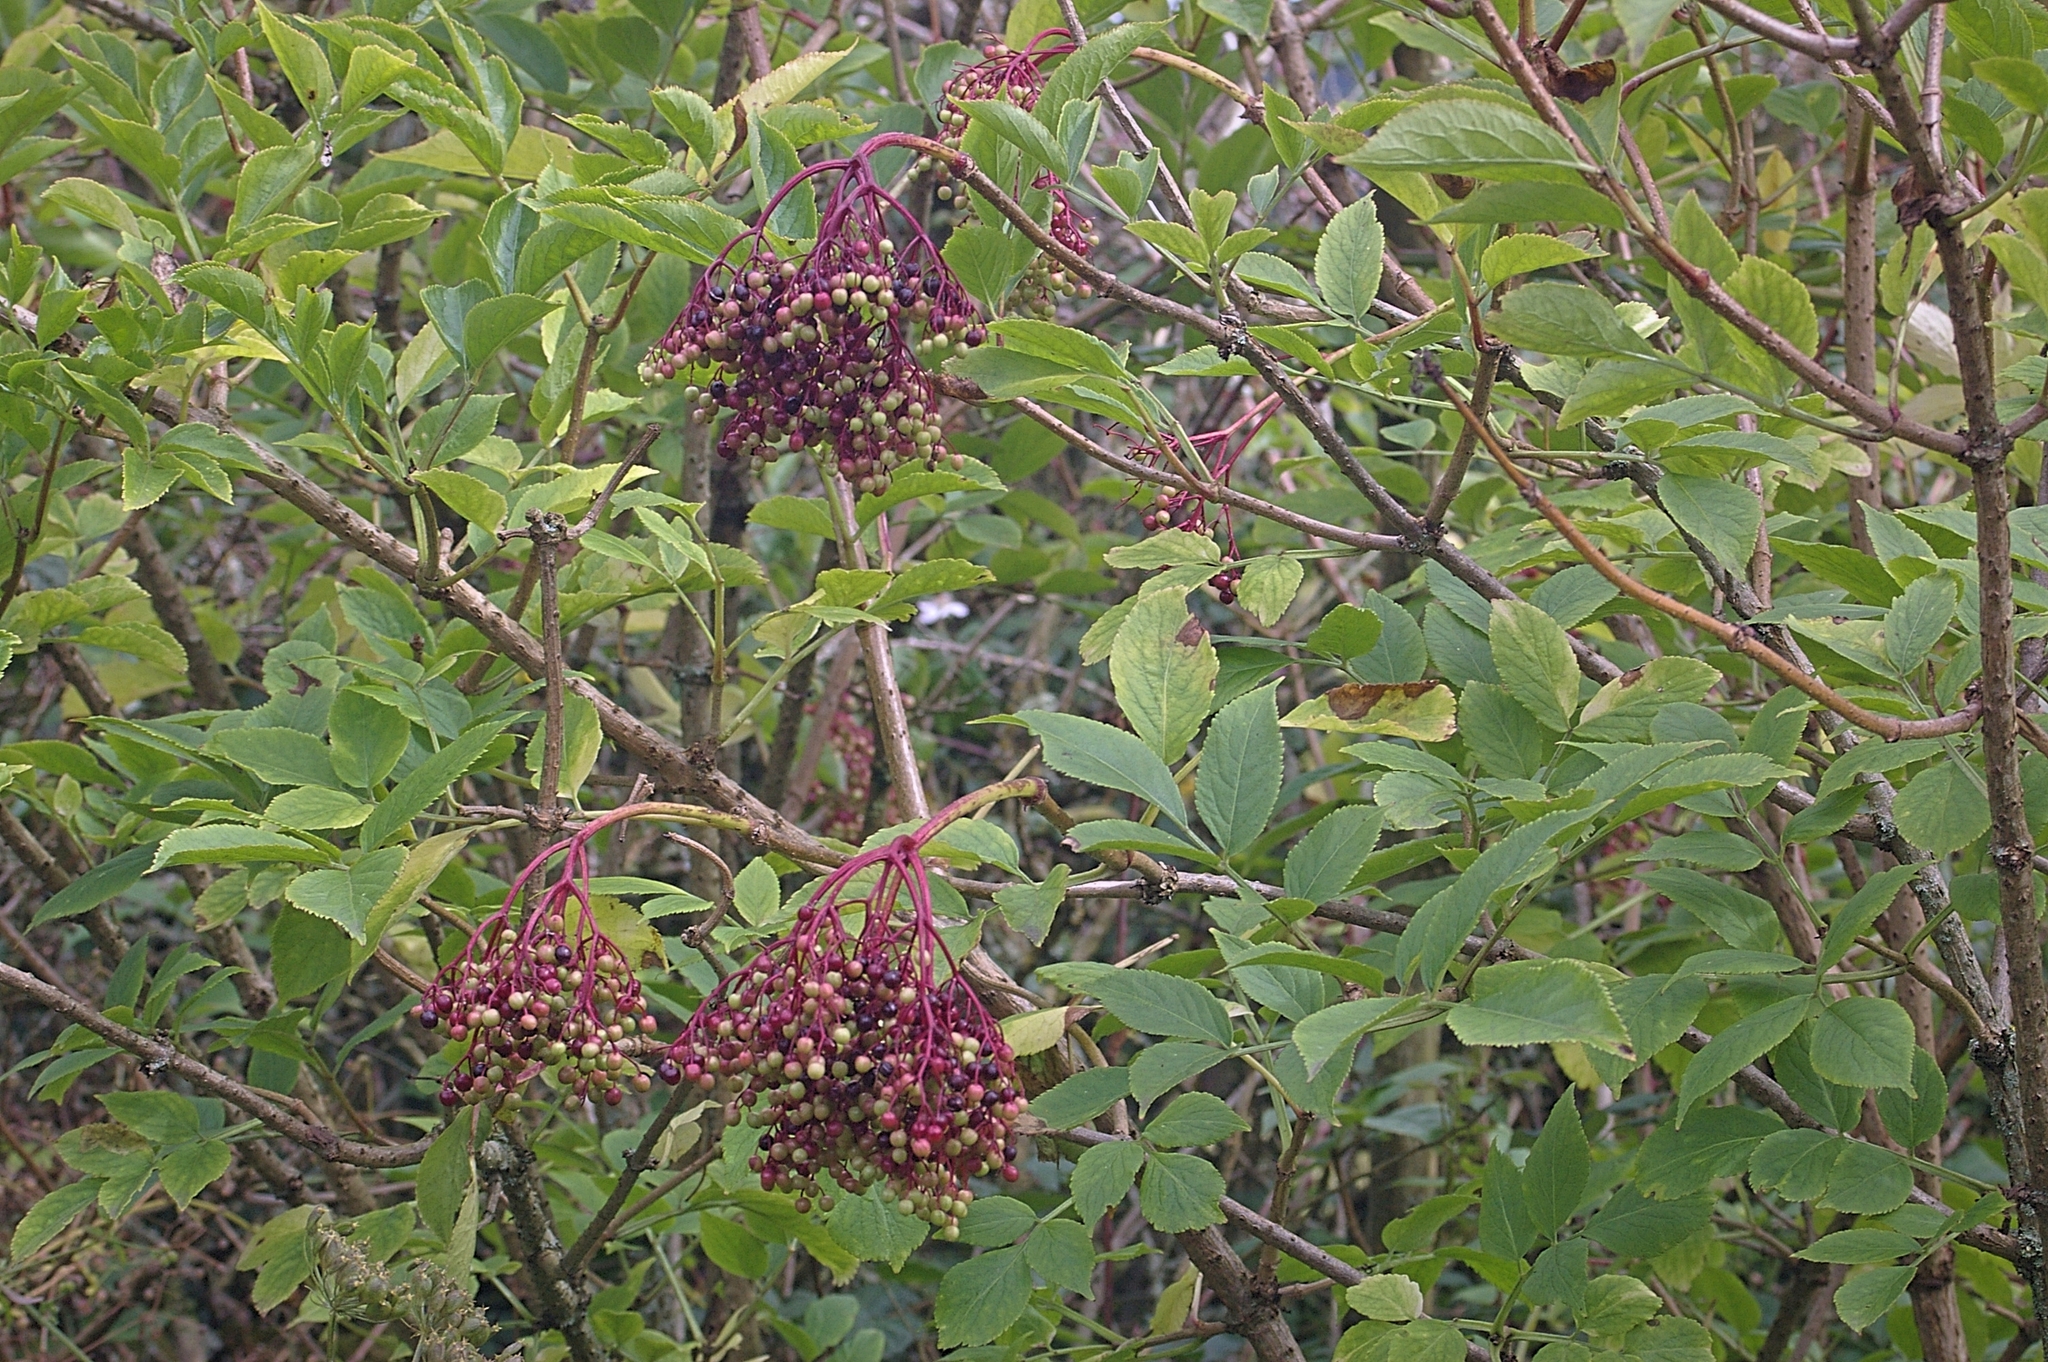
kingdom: Plantae
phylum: Tracheophyta
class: Magnoliopsida
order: Dipsacales
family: Viburnaceae
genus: Sambucus
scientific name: Sambucus nigra
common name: Elder
